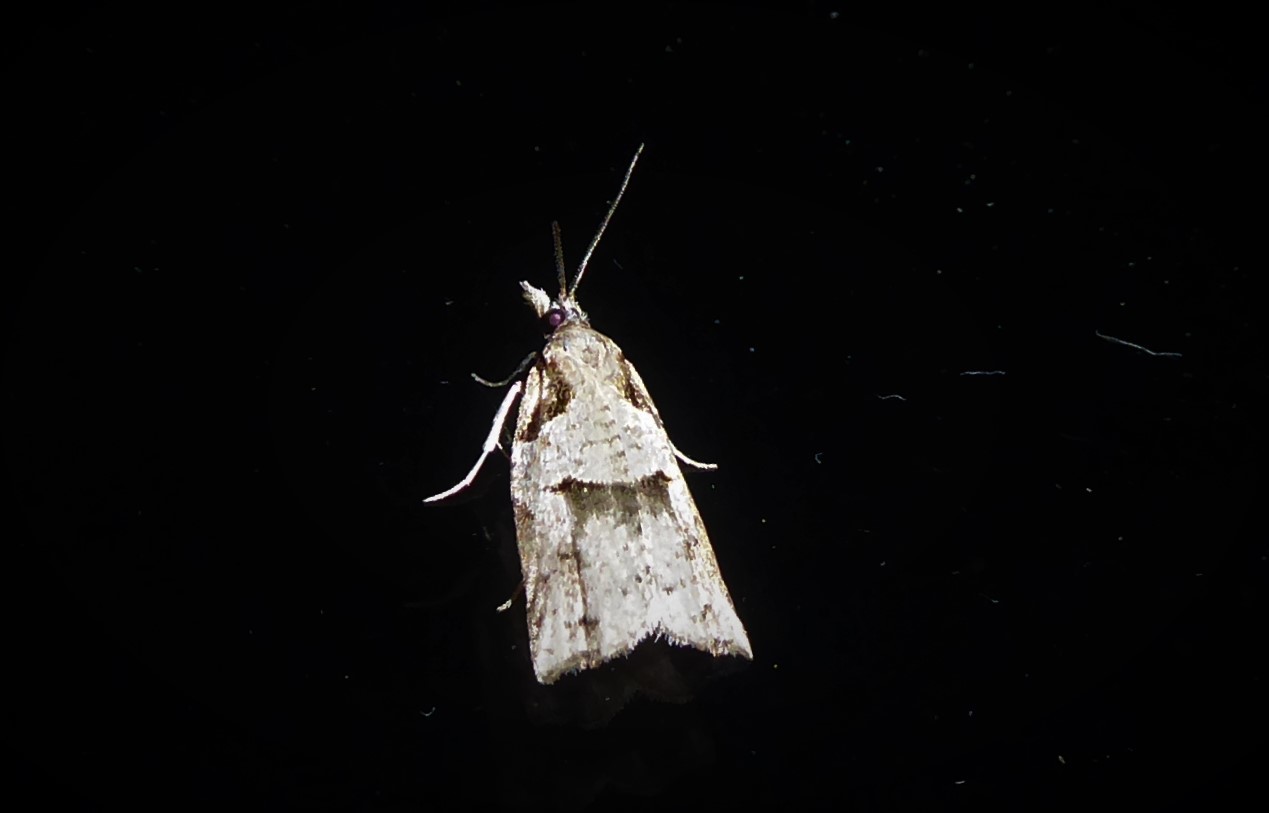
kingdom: Animalia
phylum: Arthropoda
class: Insecta
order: Lepidoptera
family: Tortricidae
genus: Harmologa
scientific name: Harmologa amplexana
